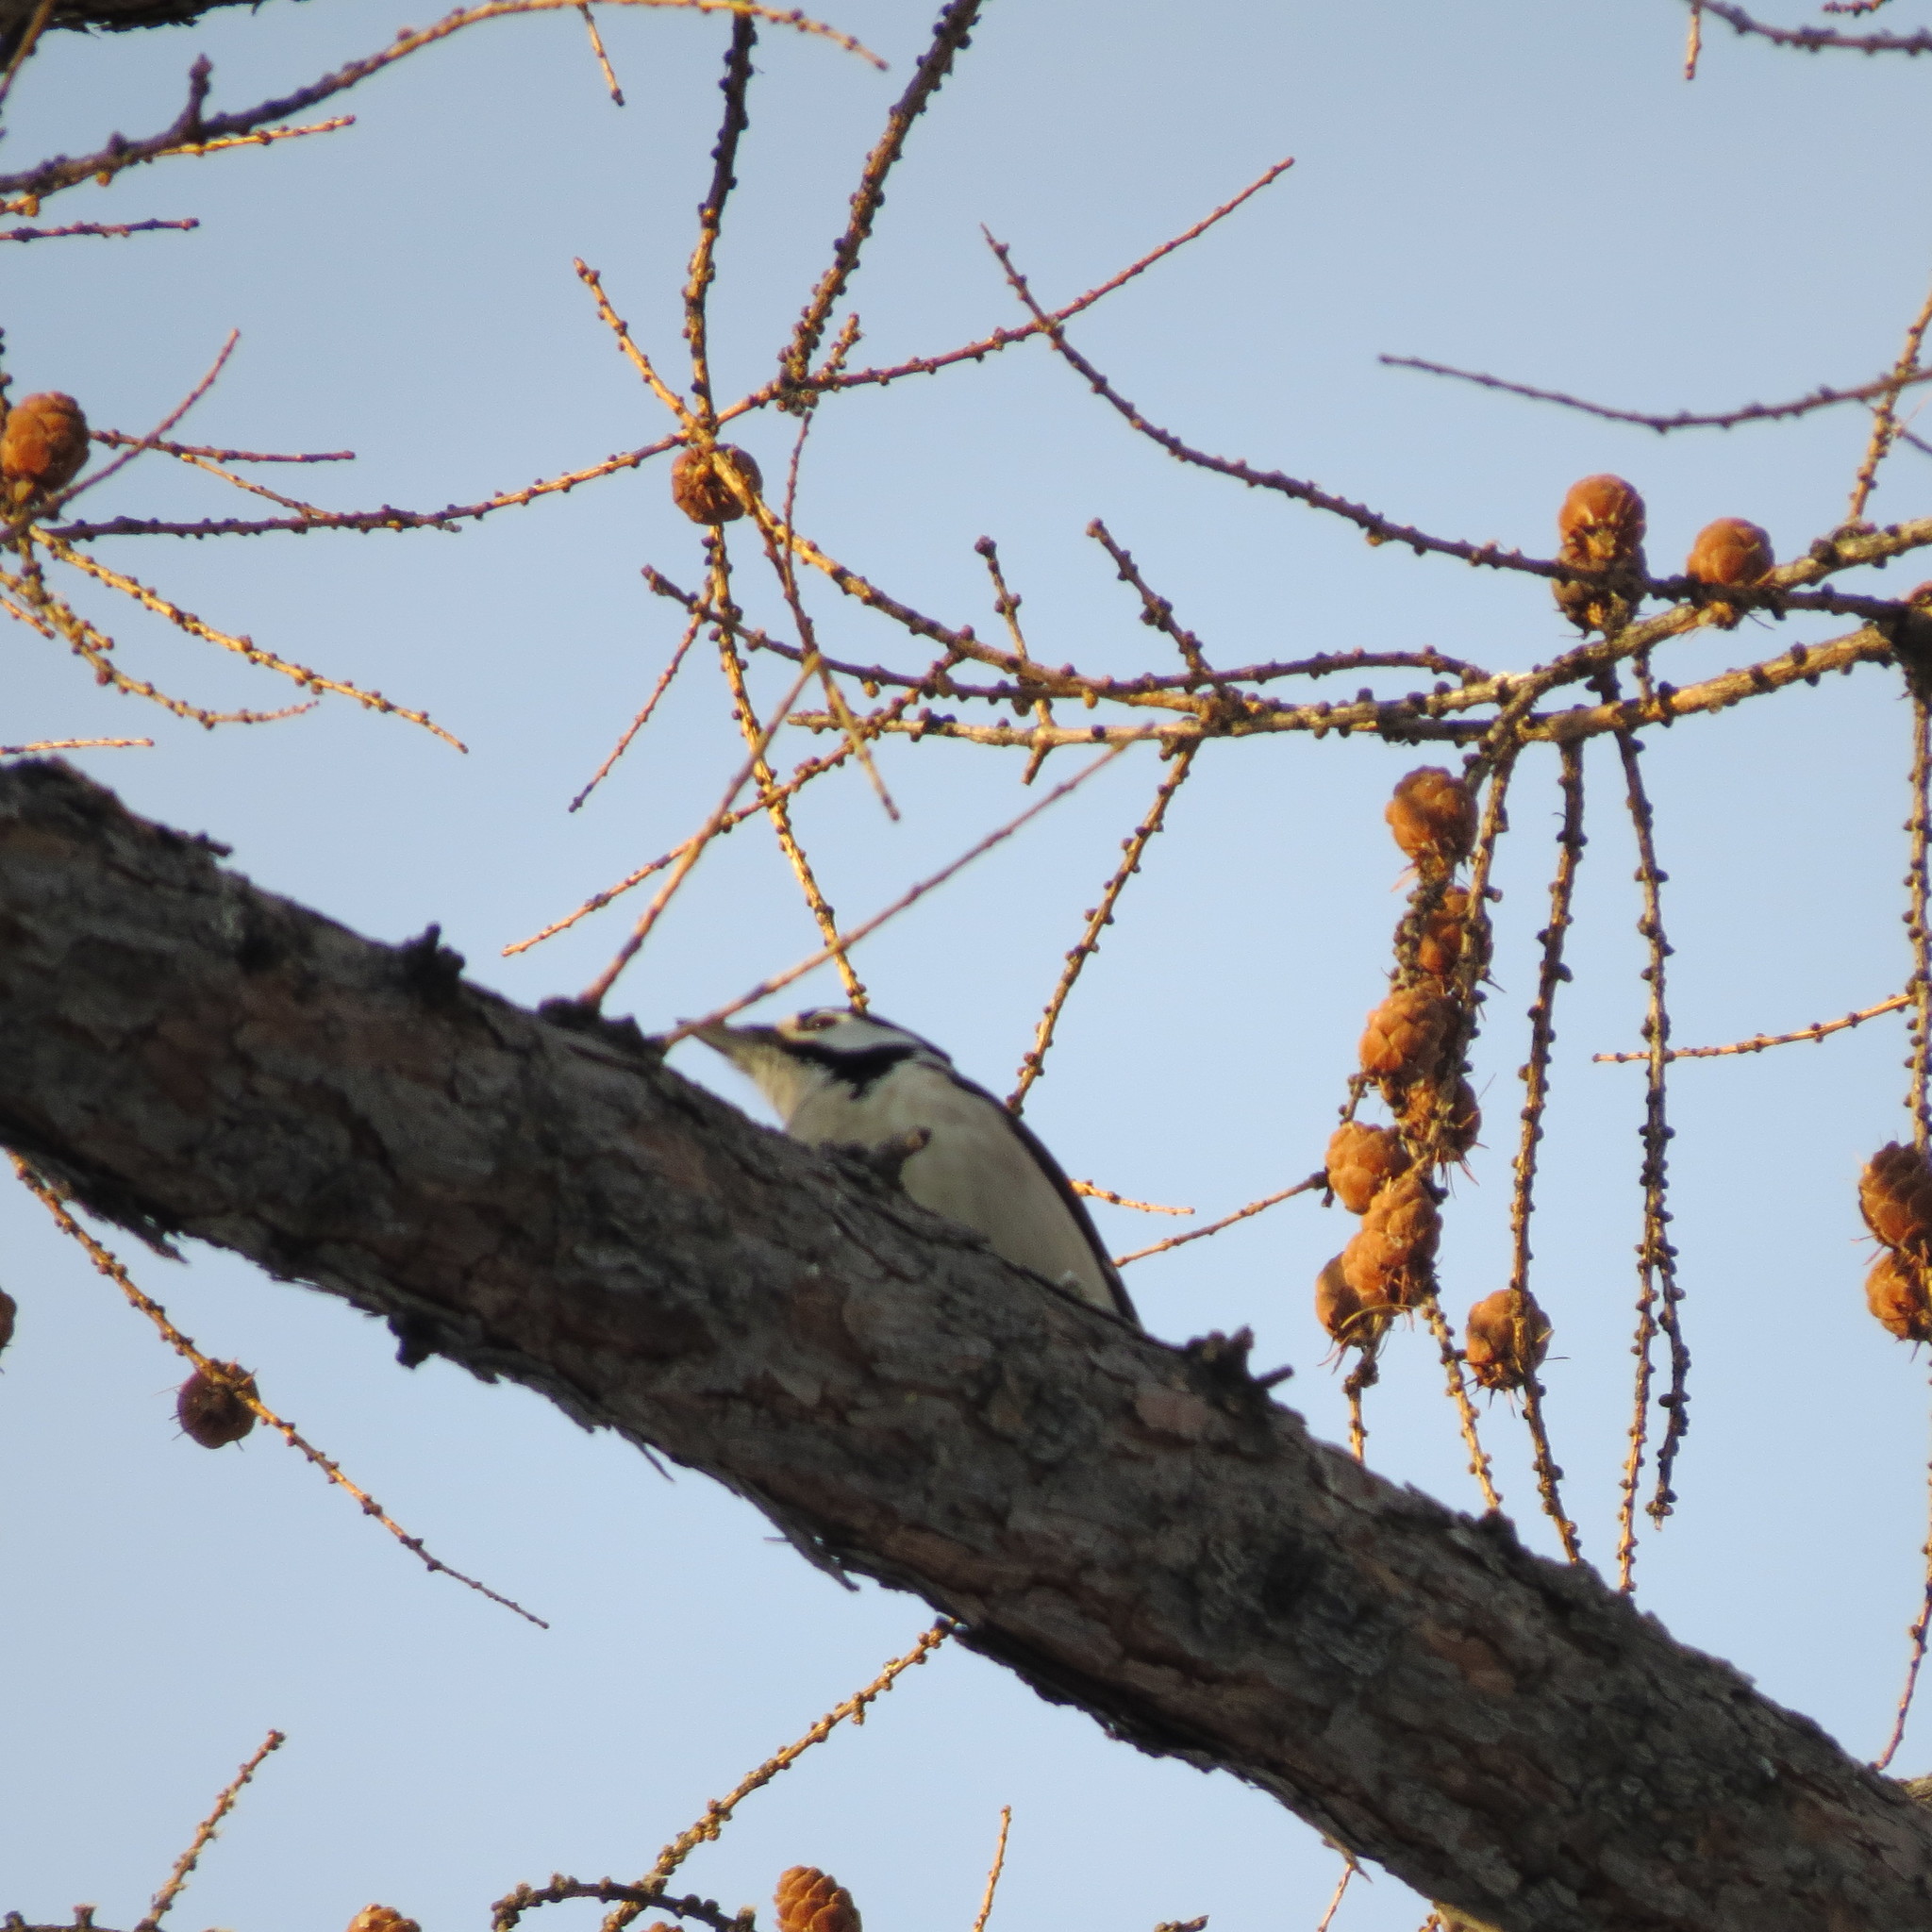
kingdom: Animalia
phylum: Chordata
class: Aves
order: Piciformes
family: Picidae
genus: Dendrocopos
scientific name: Dendrocopos major
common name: Great spotted woodpecker
